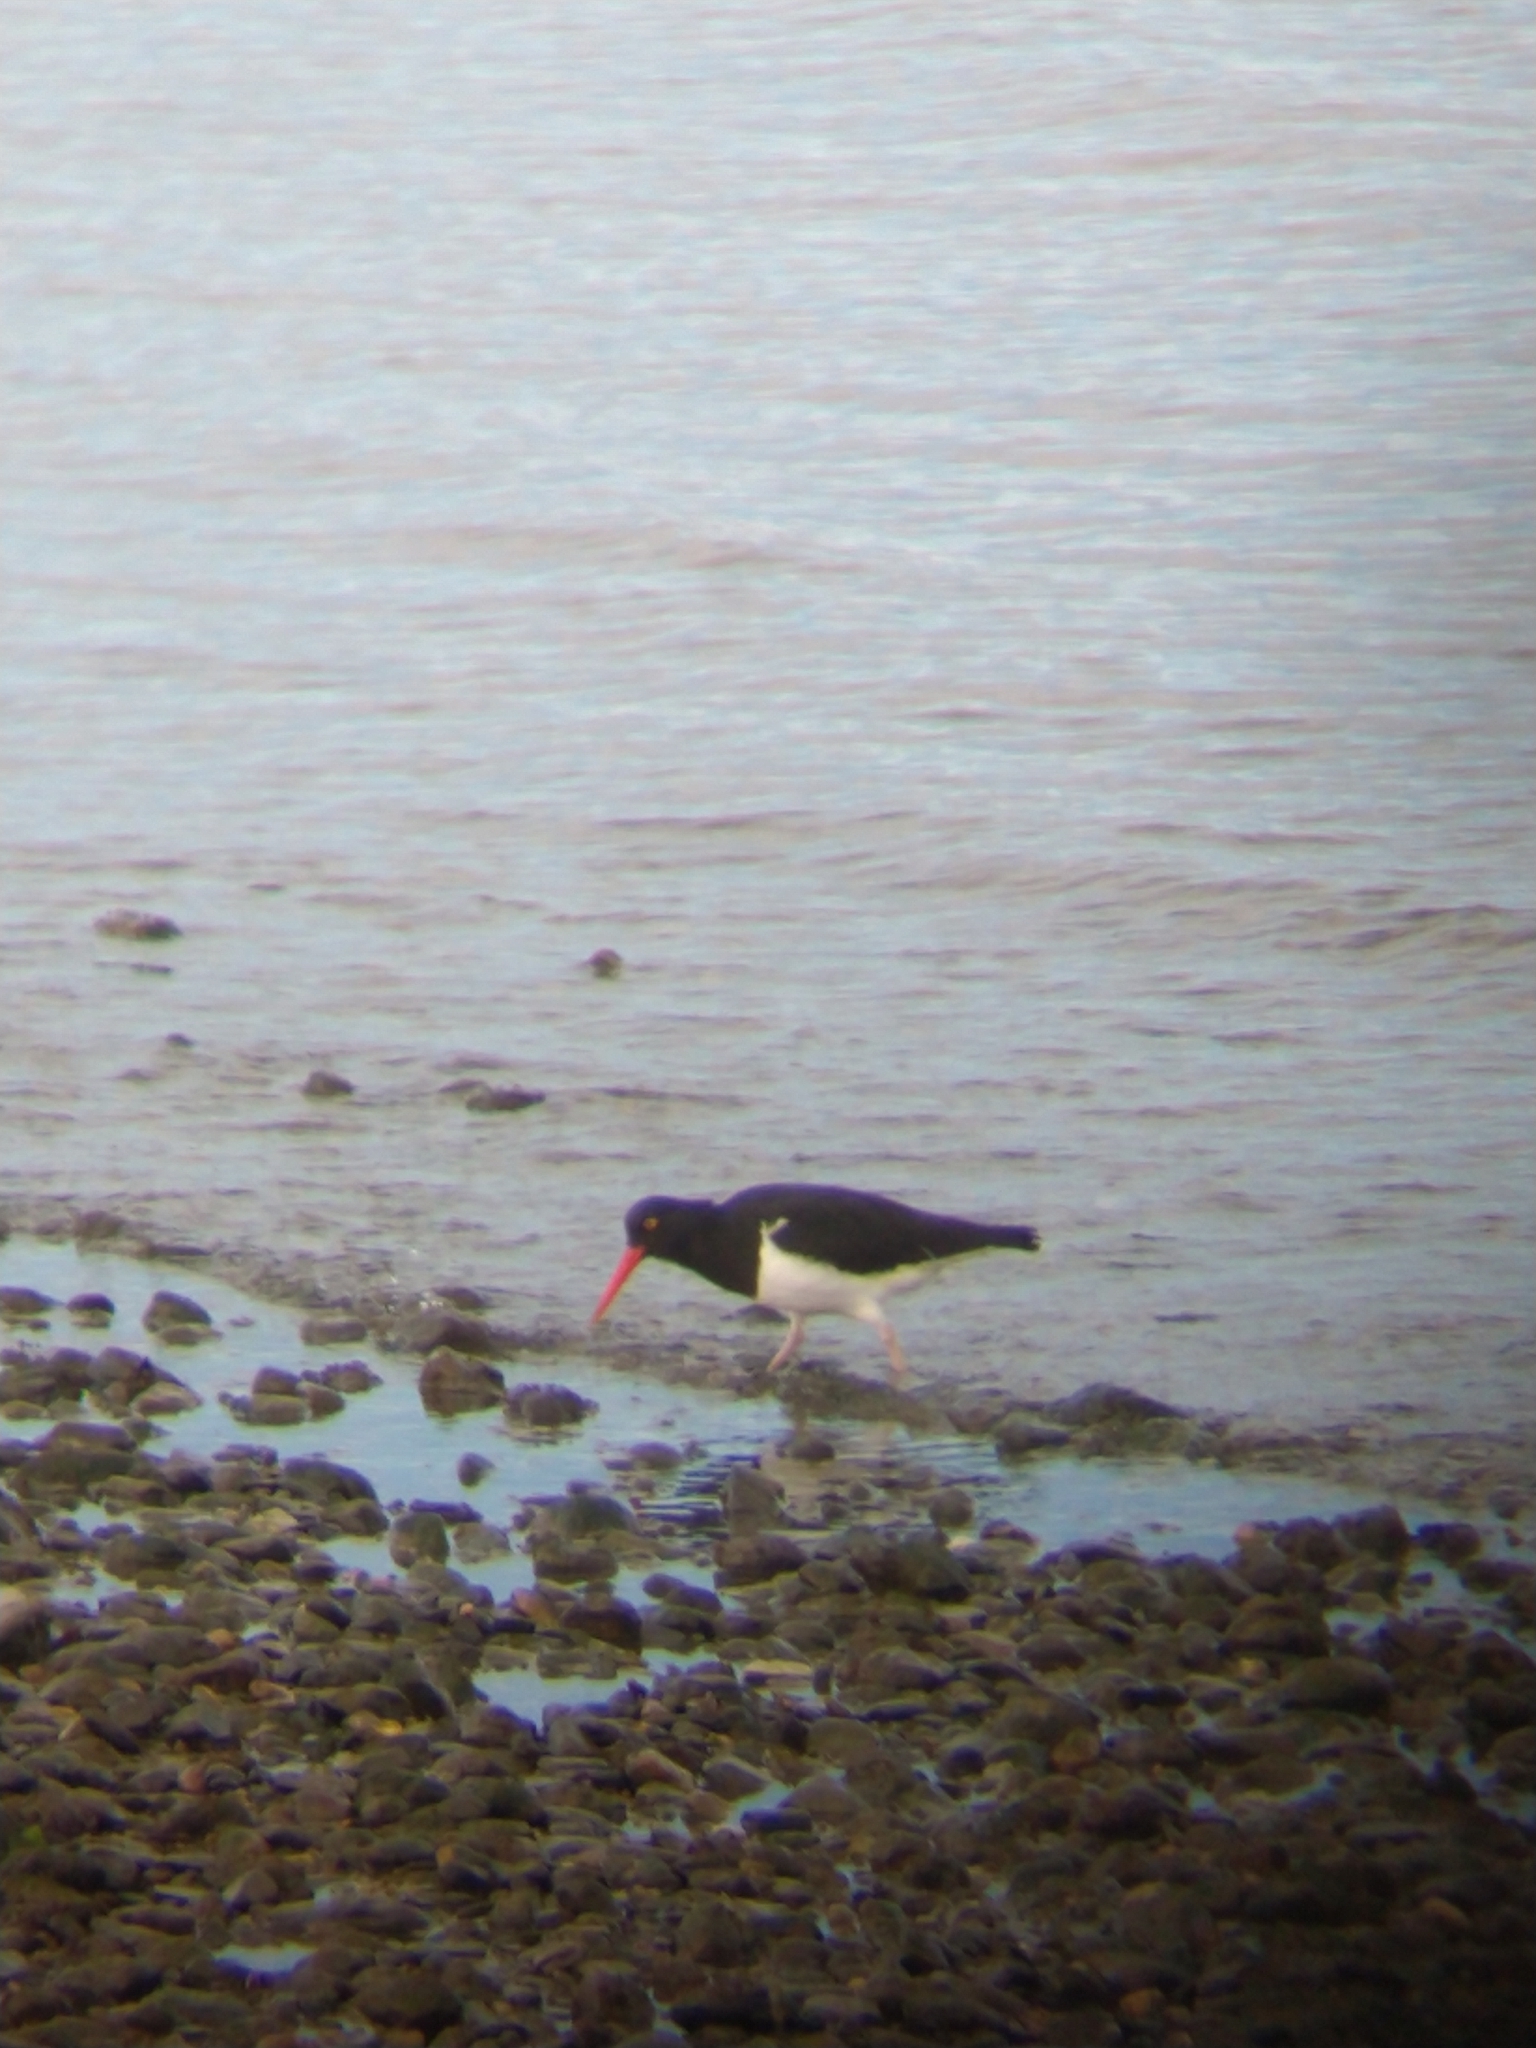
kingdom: Animalia
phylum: Chordata
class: Aves
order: Charadriiformes
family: Haematopodidae
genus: Haematopus
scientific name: Haematopus leucopodus
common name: Magellanic oystercatcher
